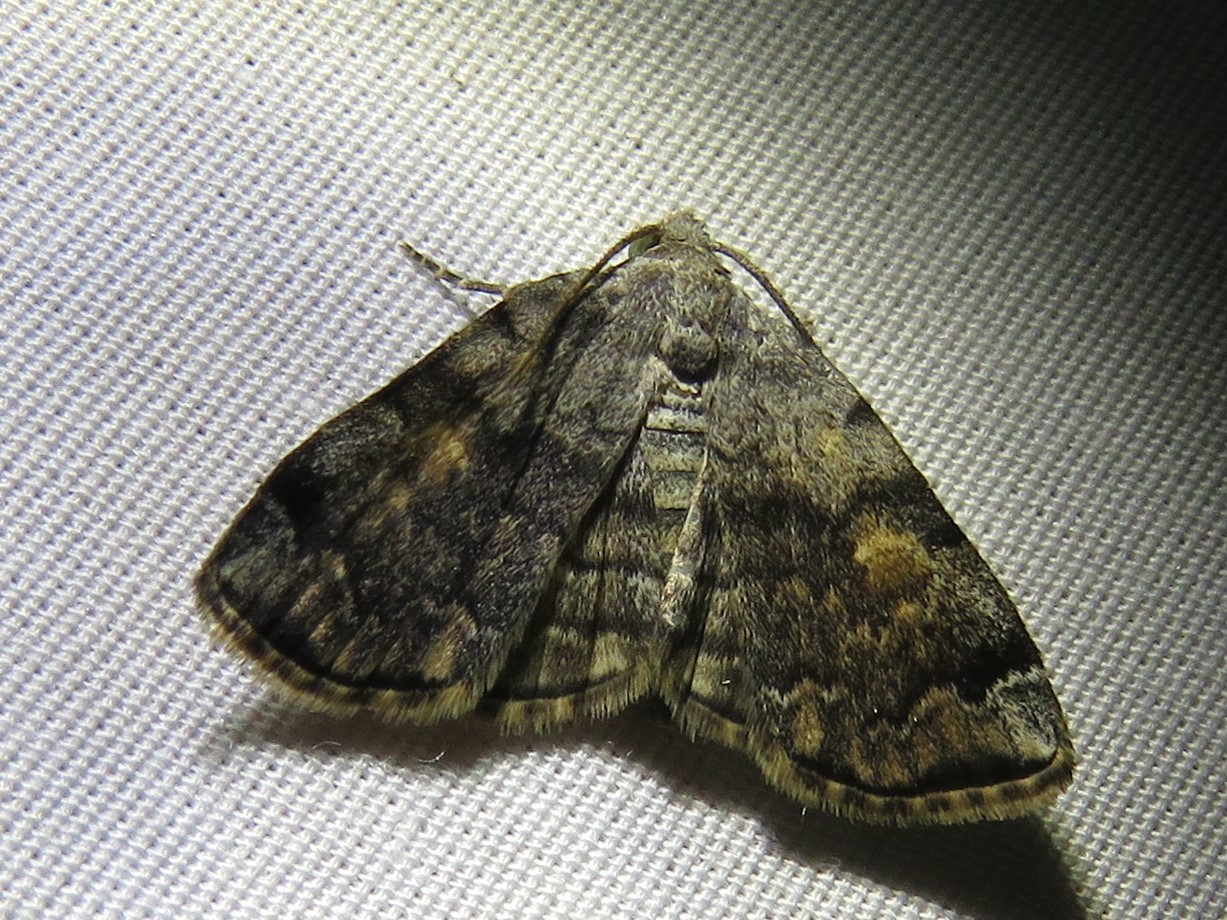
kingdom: Animalia
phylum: Arthropoda
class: Insecta
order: Lepidoptera
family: Erebidae
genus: Idia
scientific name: Idia americalis
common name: American idia moth
